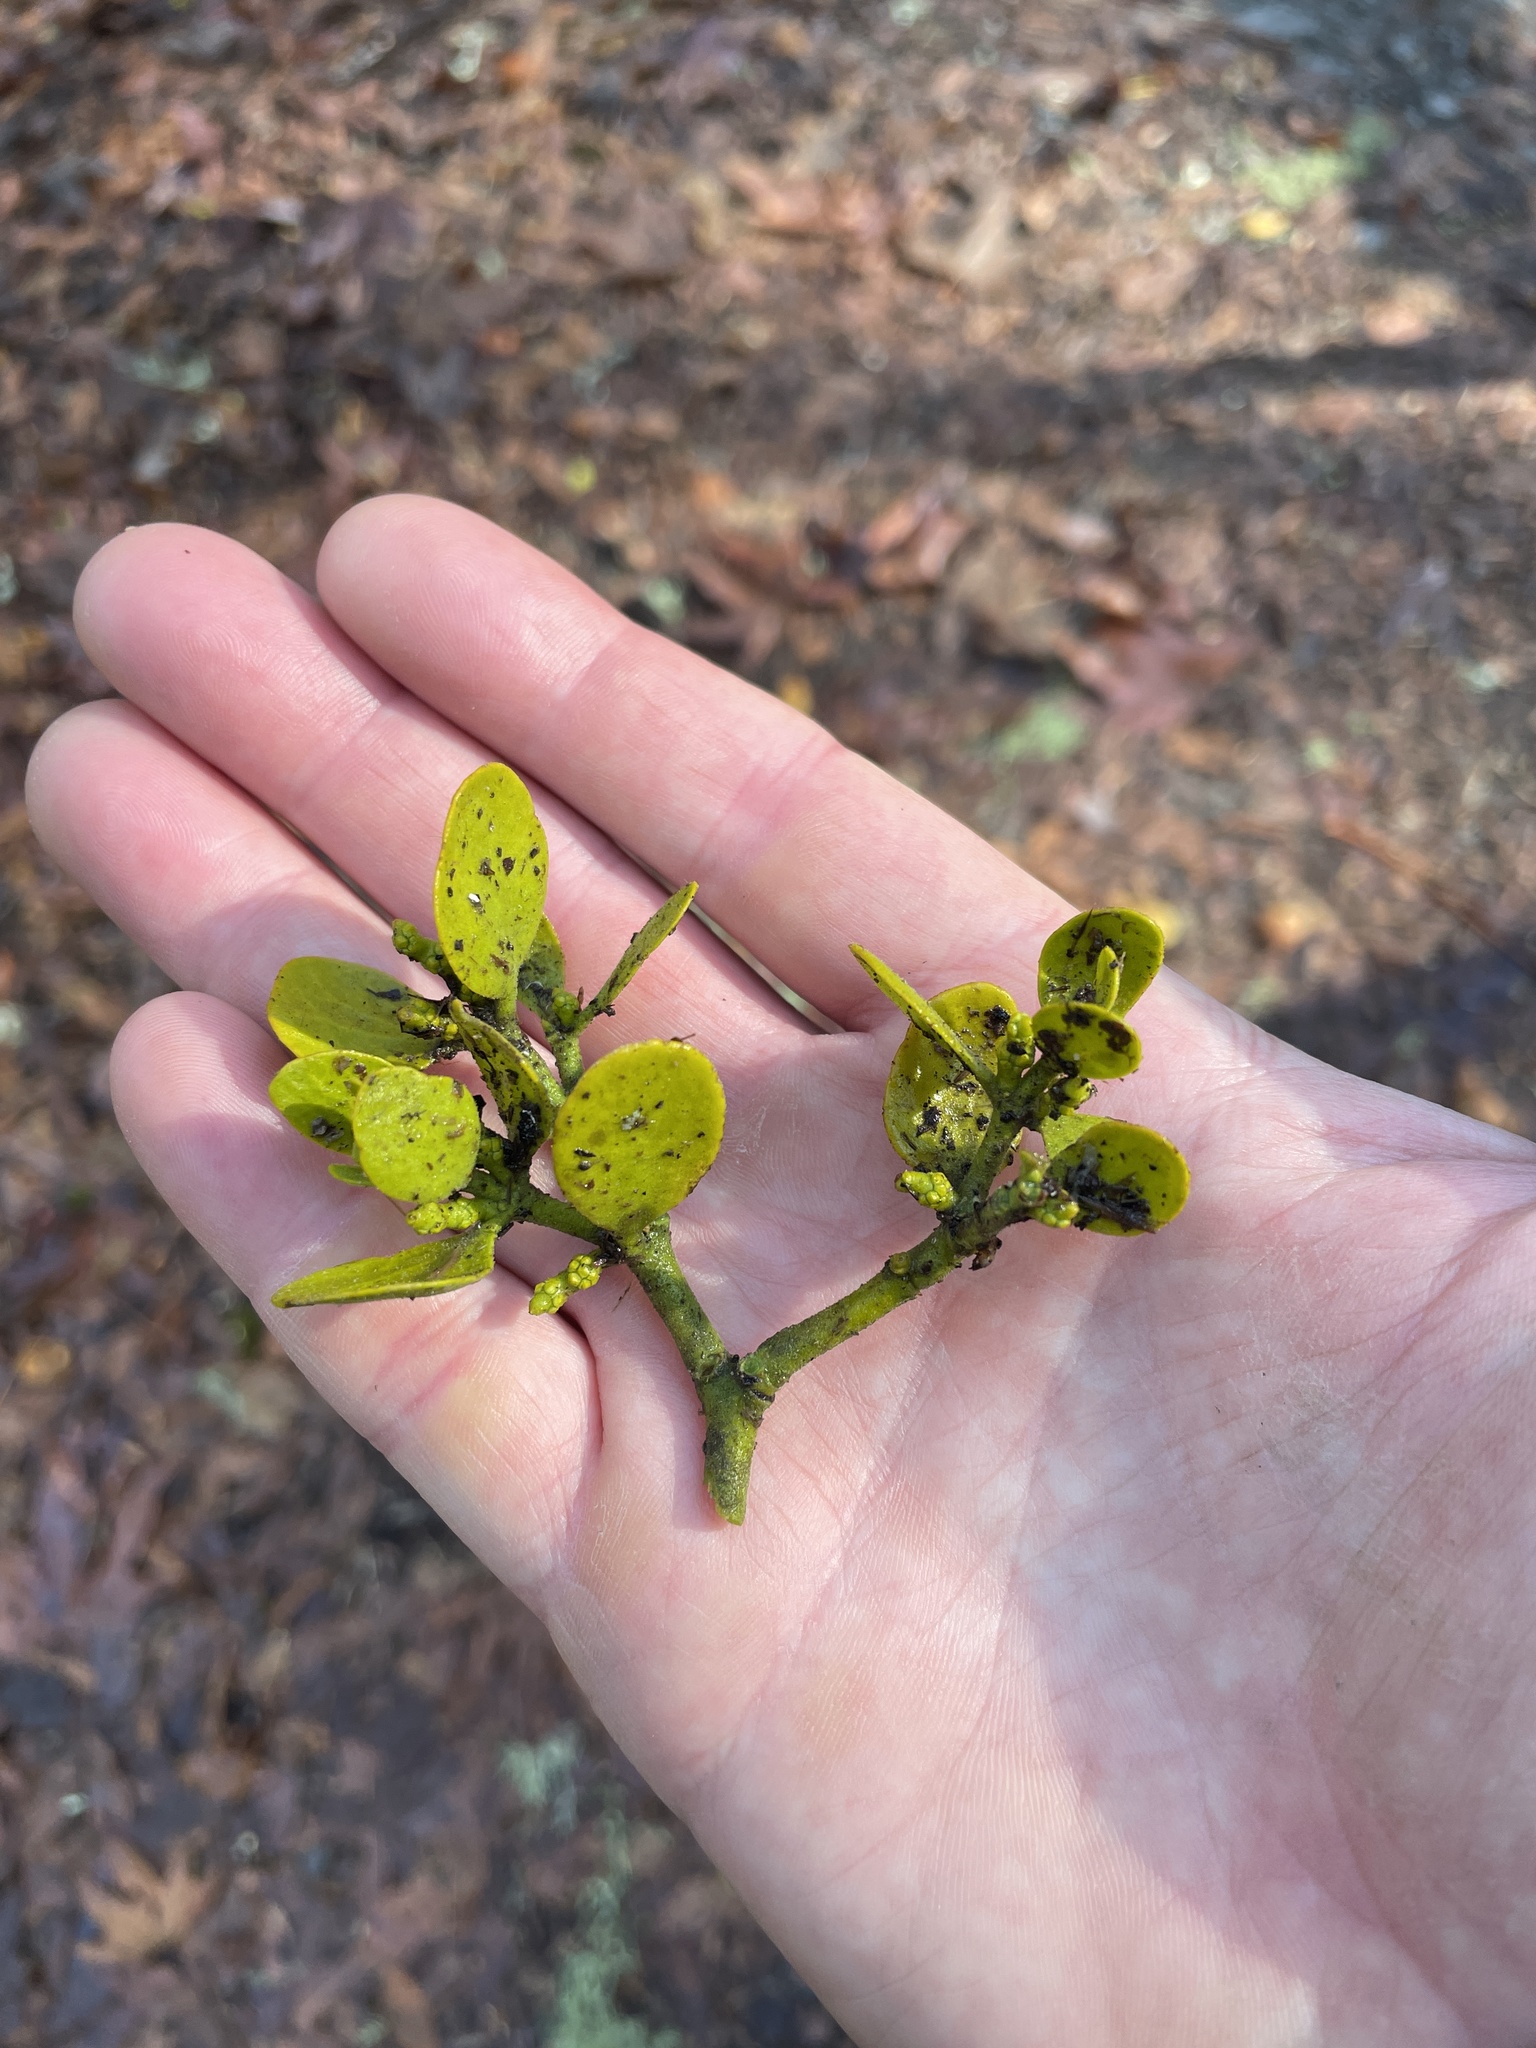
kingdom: Plantae
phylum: Tracheophyta
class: Magnoliopsida
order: Santalales
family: Viscaceae
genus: Phoradendron
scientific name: Phoradendron leucarpum
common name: Pacific mistletoe
